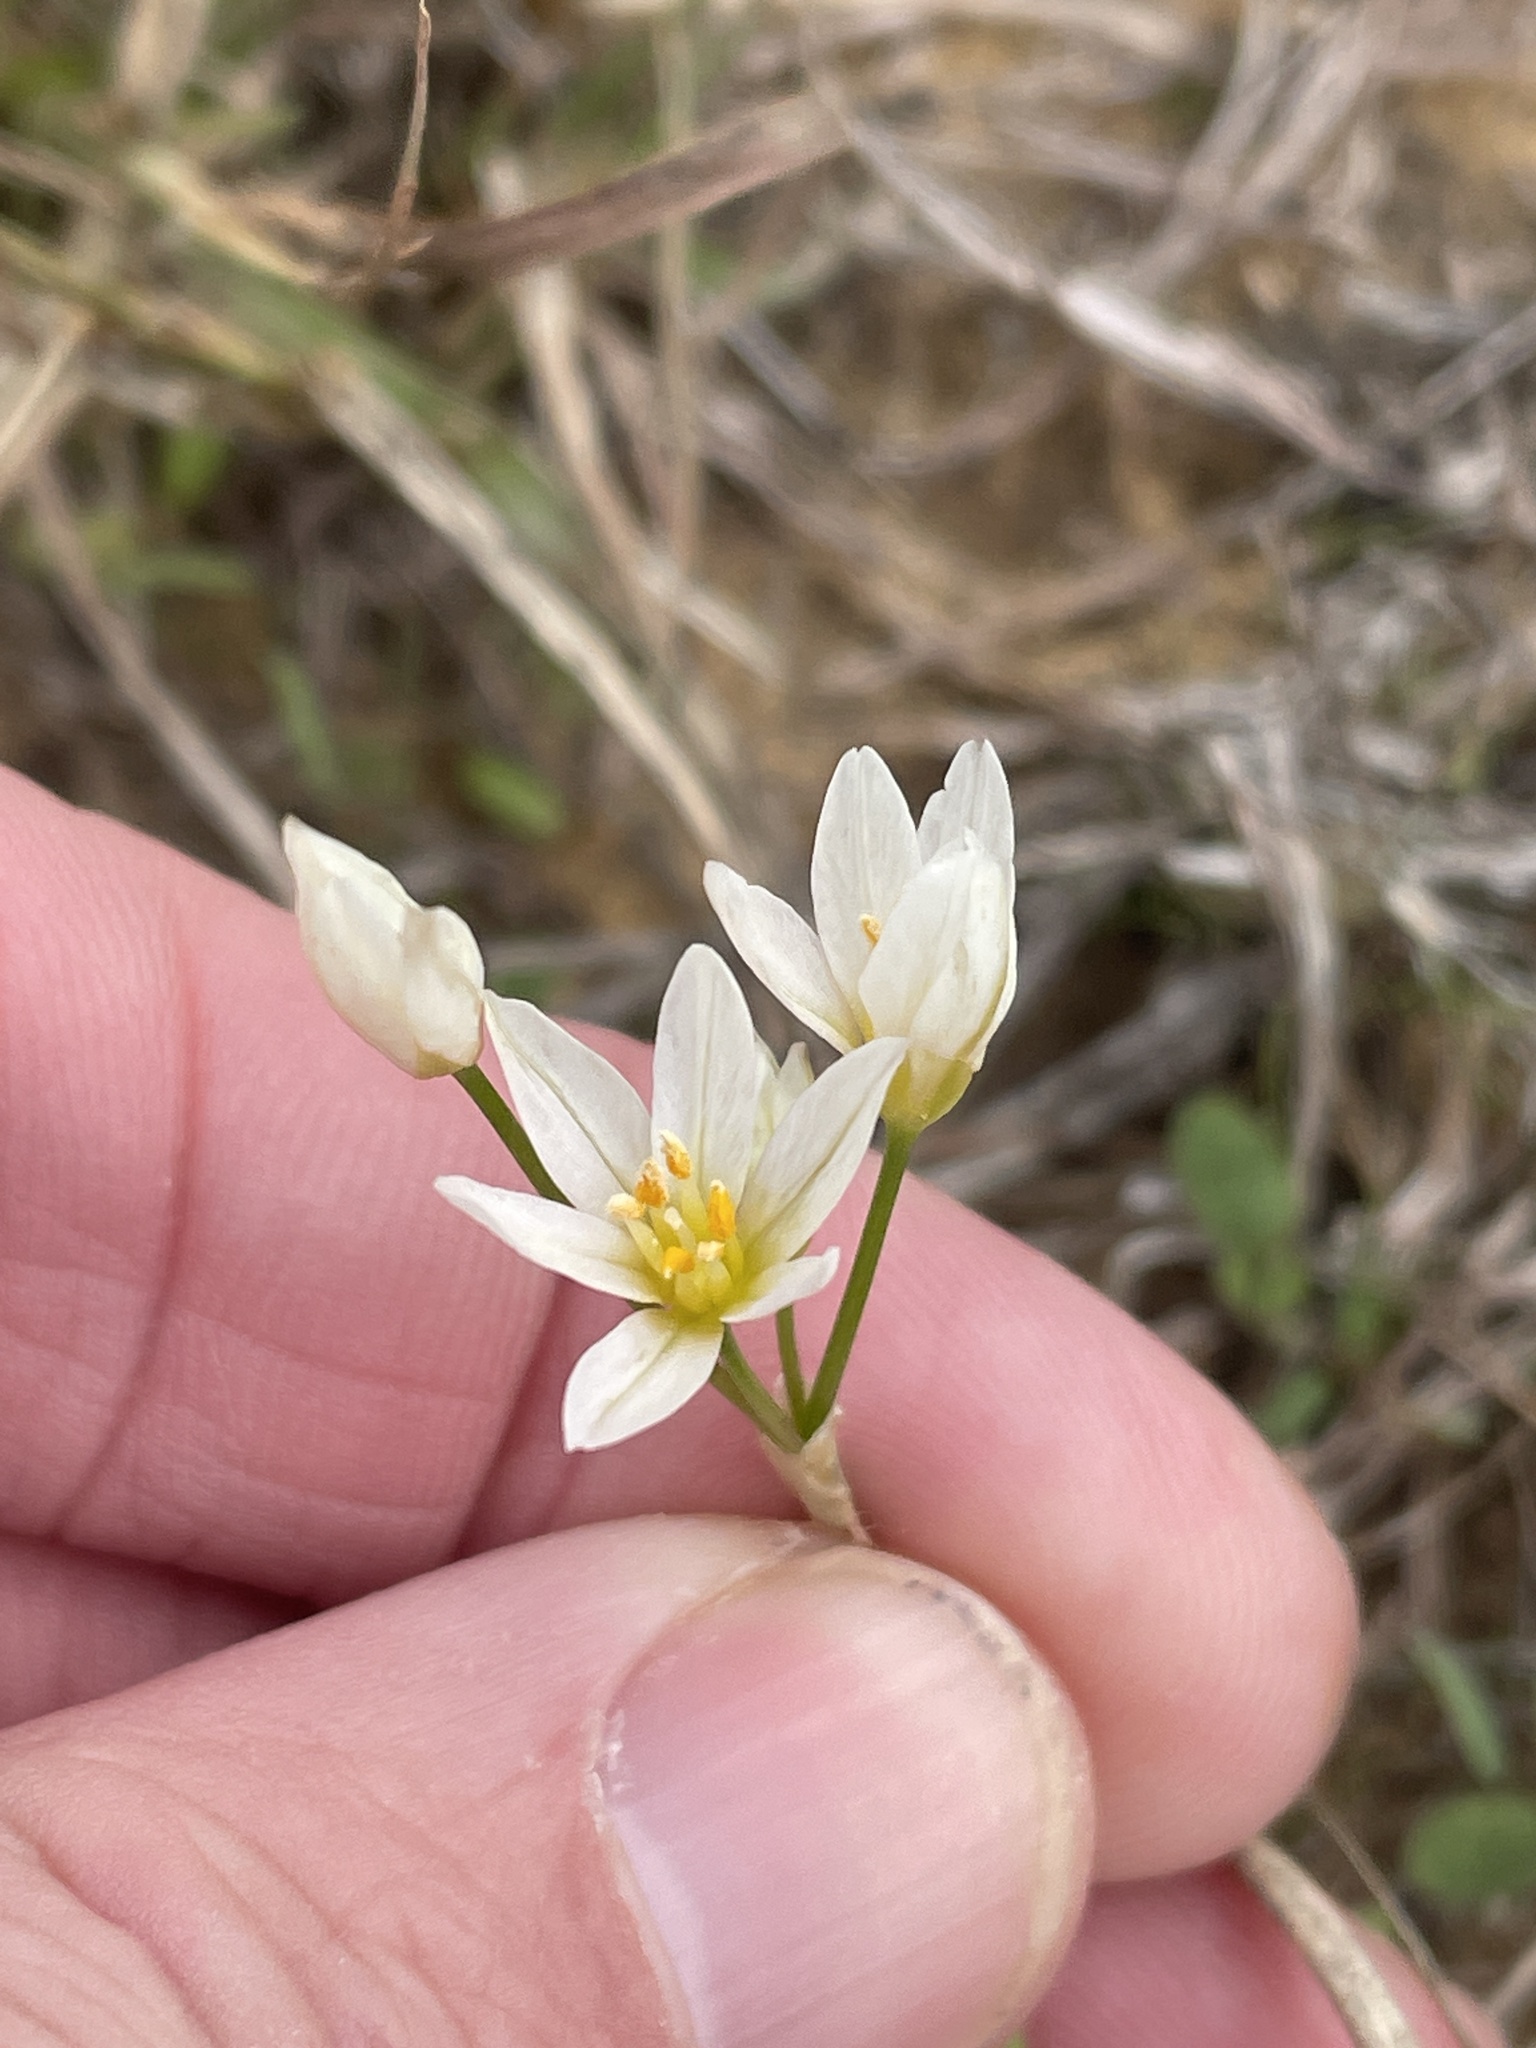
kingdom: Plantae
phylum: Tracheophyta
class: Liliopsida
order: Asparagales
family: Amaryllidaceae
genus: Nothoscordum
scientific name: Nothoscordum bivalve
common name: Crow-poison
